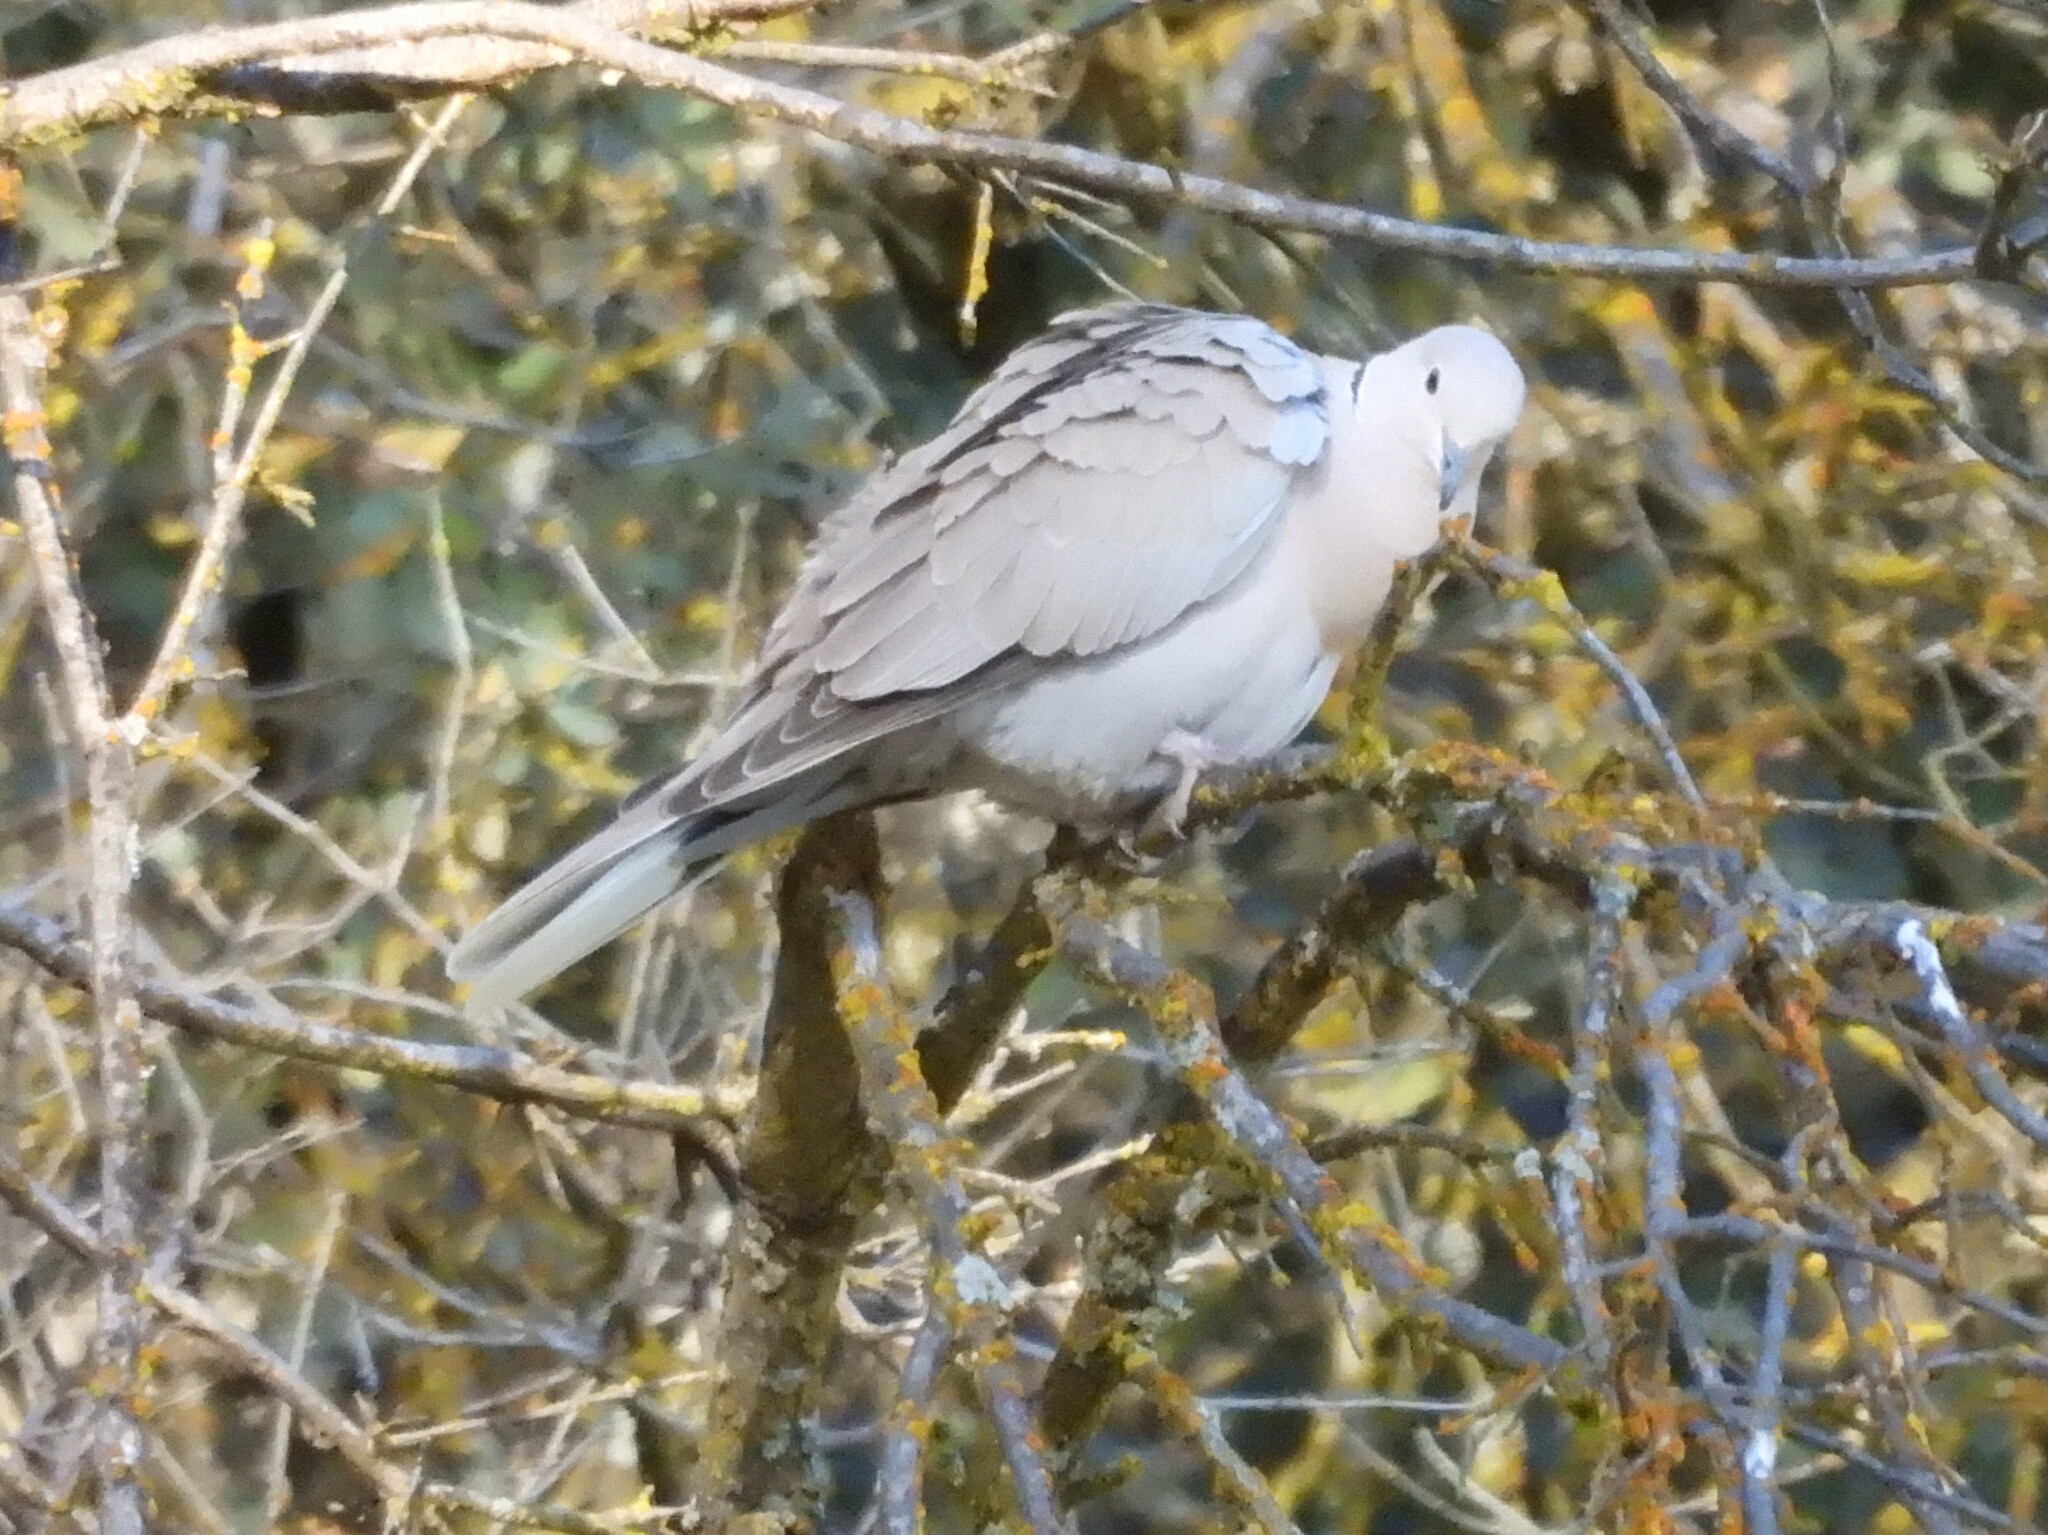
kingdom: Animalia
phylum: Chordata
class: Aves
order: Columbiformes
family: Columbidae
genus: Streptopelia
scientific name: Streptopelia decaocto
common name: Eurasian collared dove
